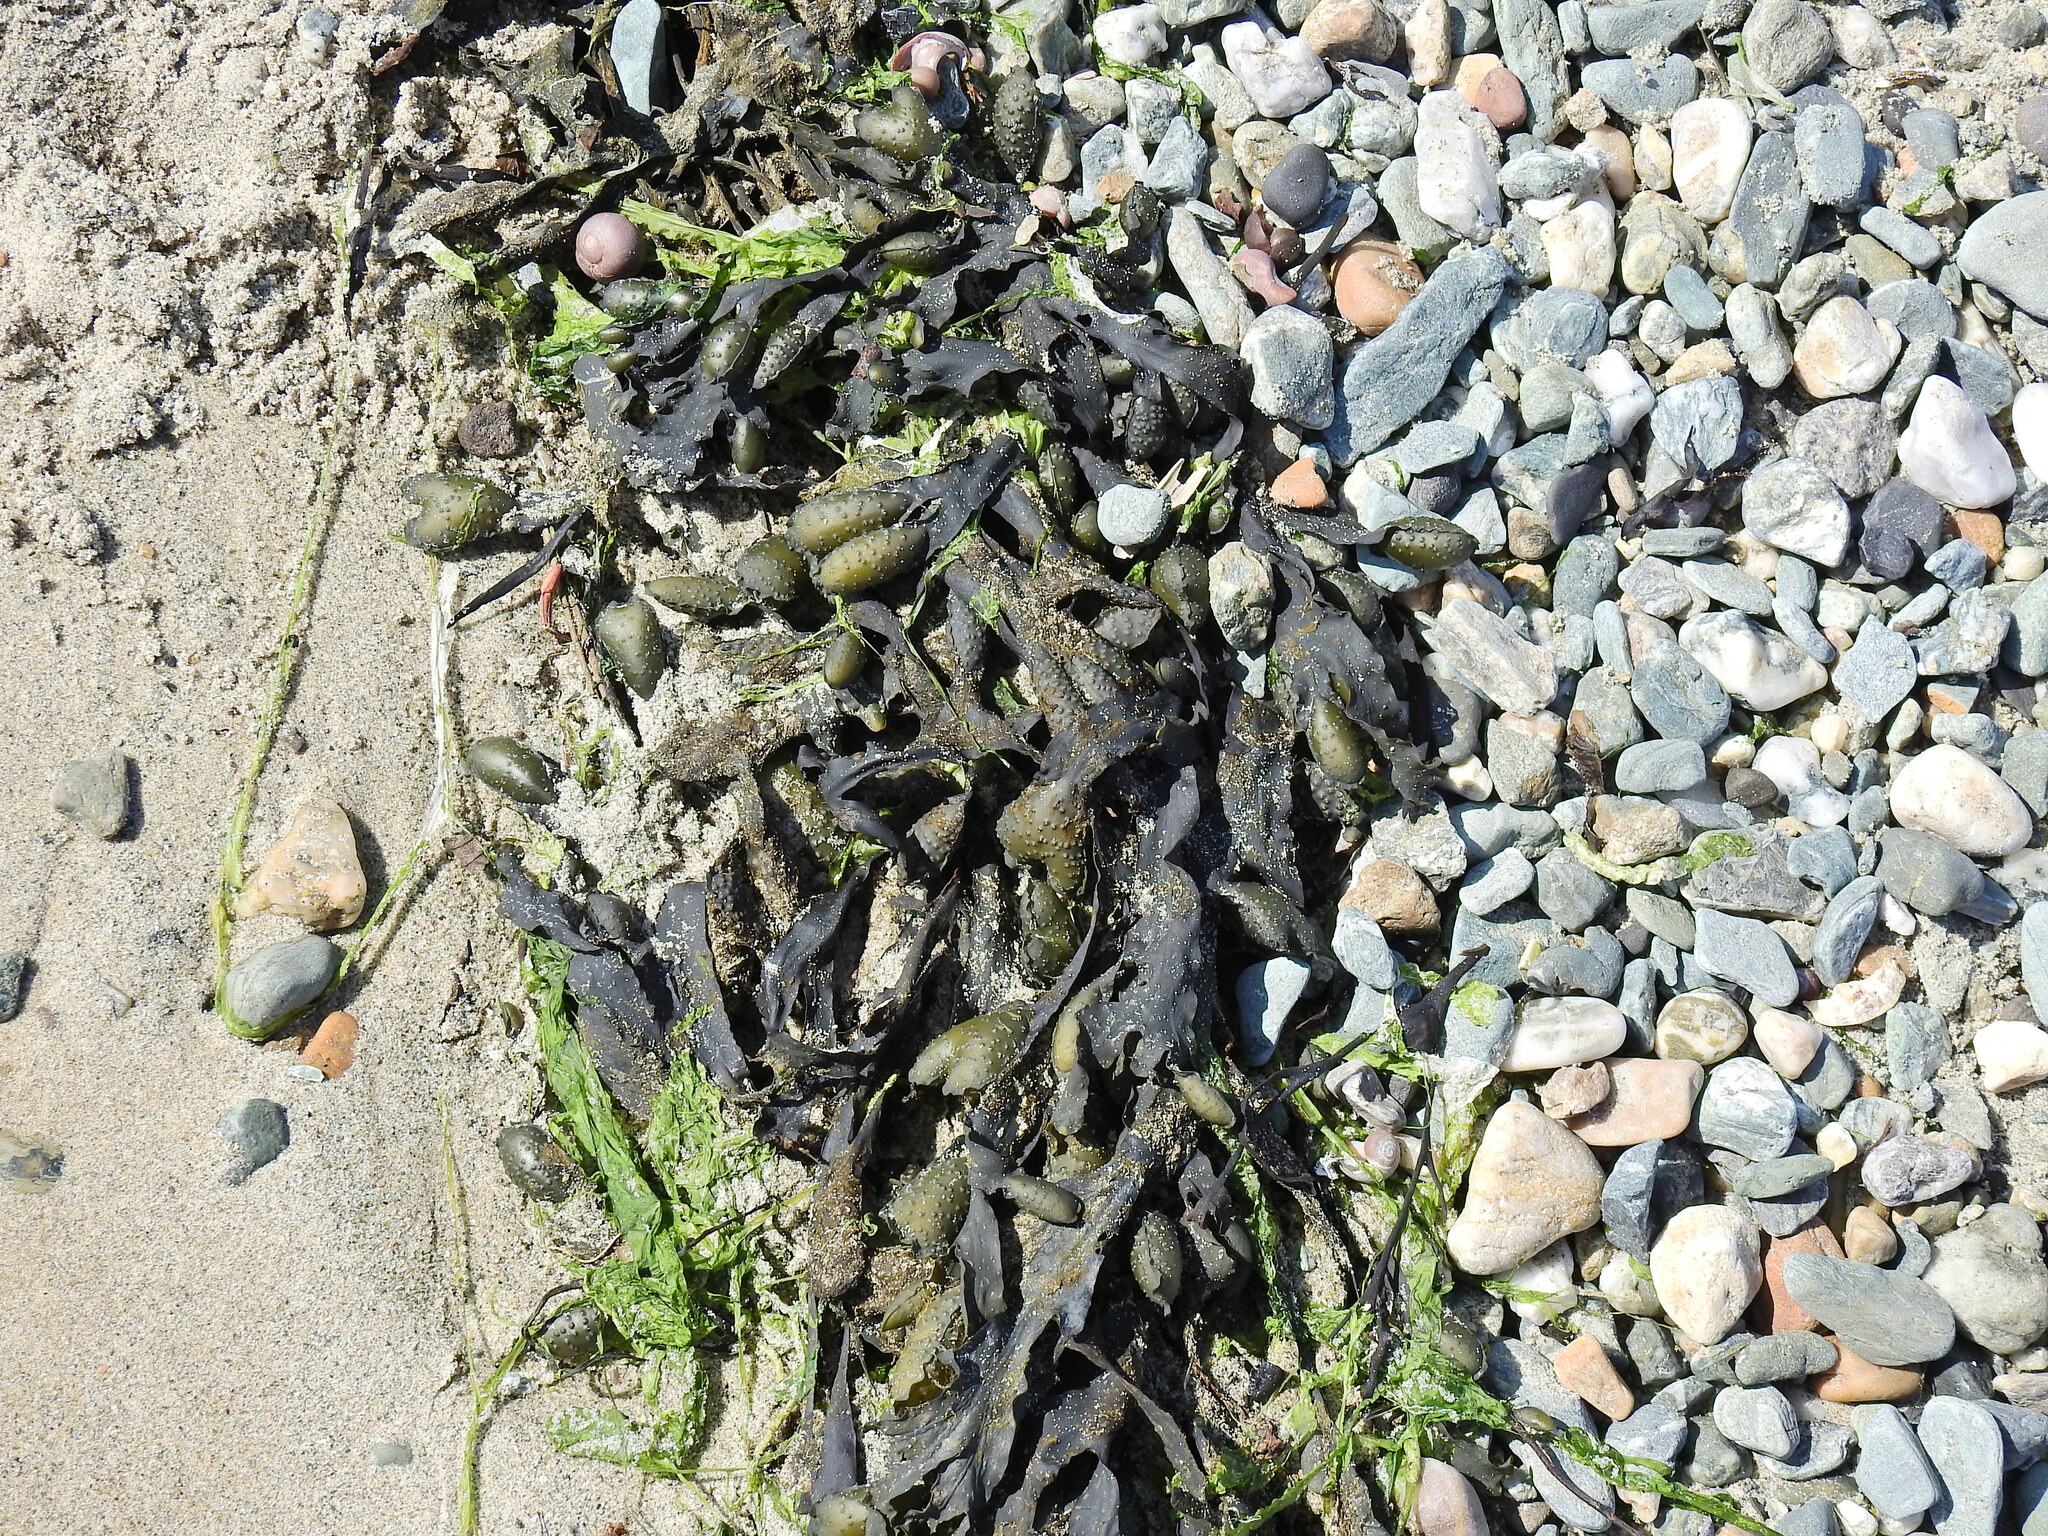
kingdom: Chromista
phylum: Ochrophyta
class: Phaeophyceae
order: Fucales
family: Fucaceae
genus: Fucus
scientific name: Fucus spiralis
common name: Spiral wrack
